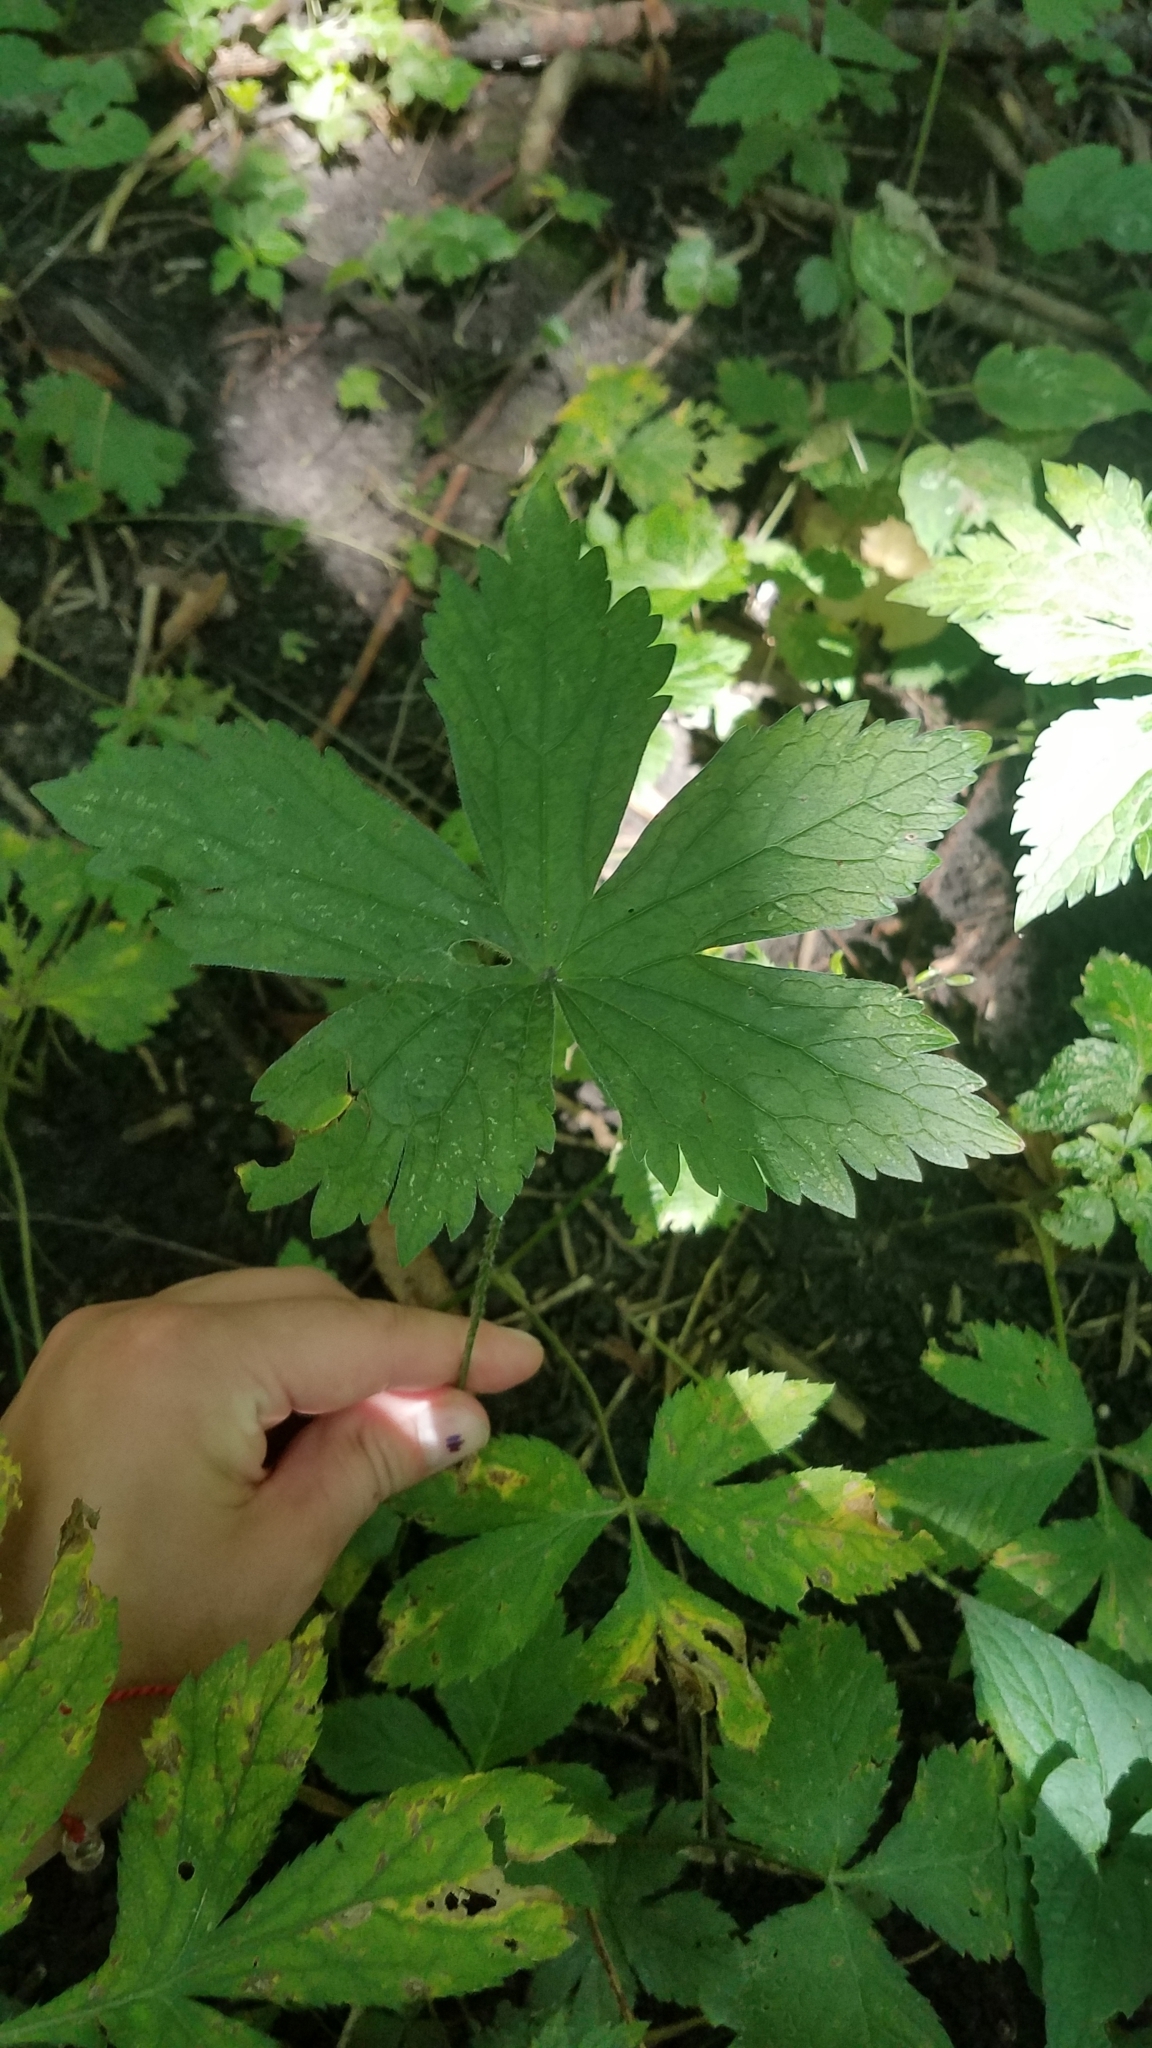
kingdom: Plantae
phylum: Tracheophyta
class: Magnoliopsida
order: Ranunculales
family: Ranunculaceae
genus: Anemone
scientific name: Anemone virginiana
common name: Tall anemone
